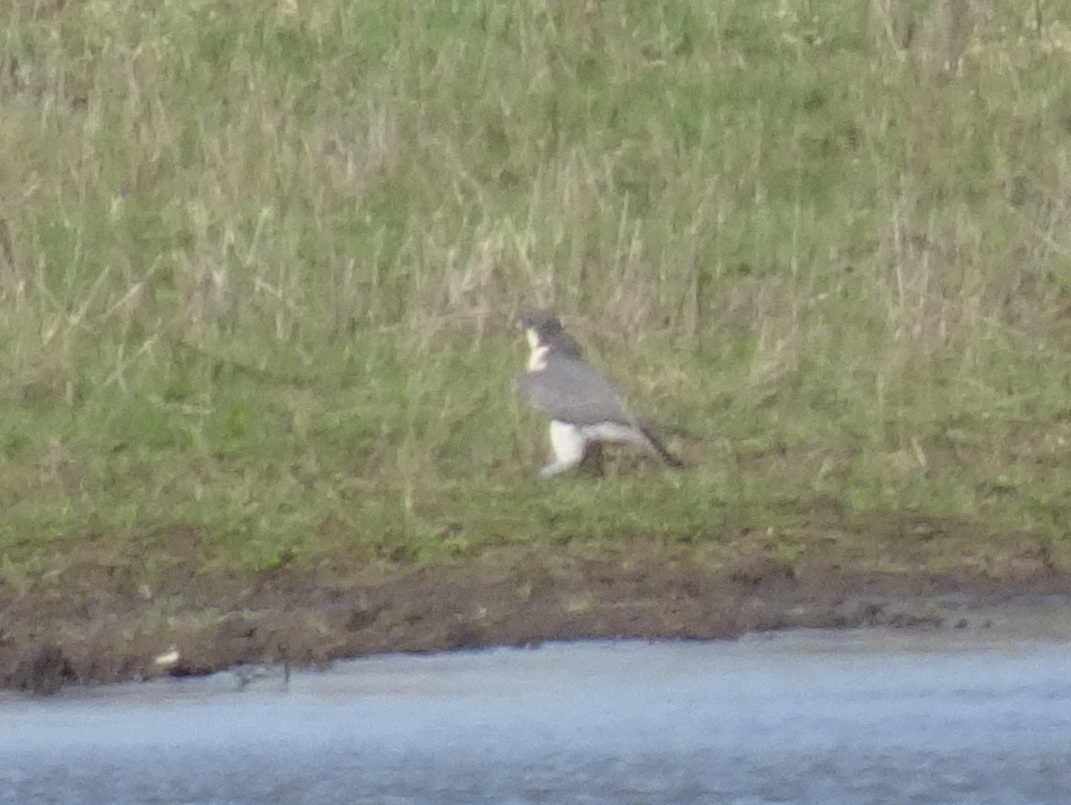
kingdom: Animalia
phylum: Chordata
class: Aves
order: Falconiformes
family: Falconidae
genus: Falco
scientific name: Falco peregrinus
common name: Peregrine falcon
